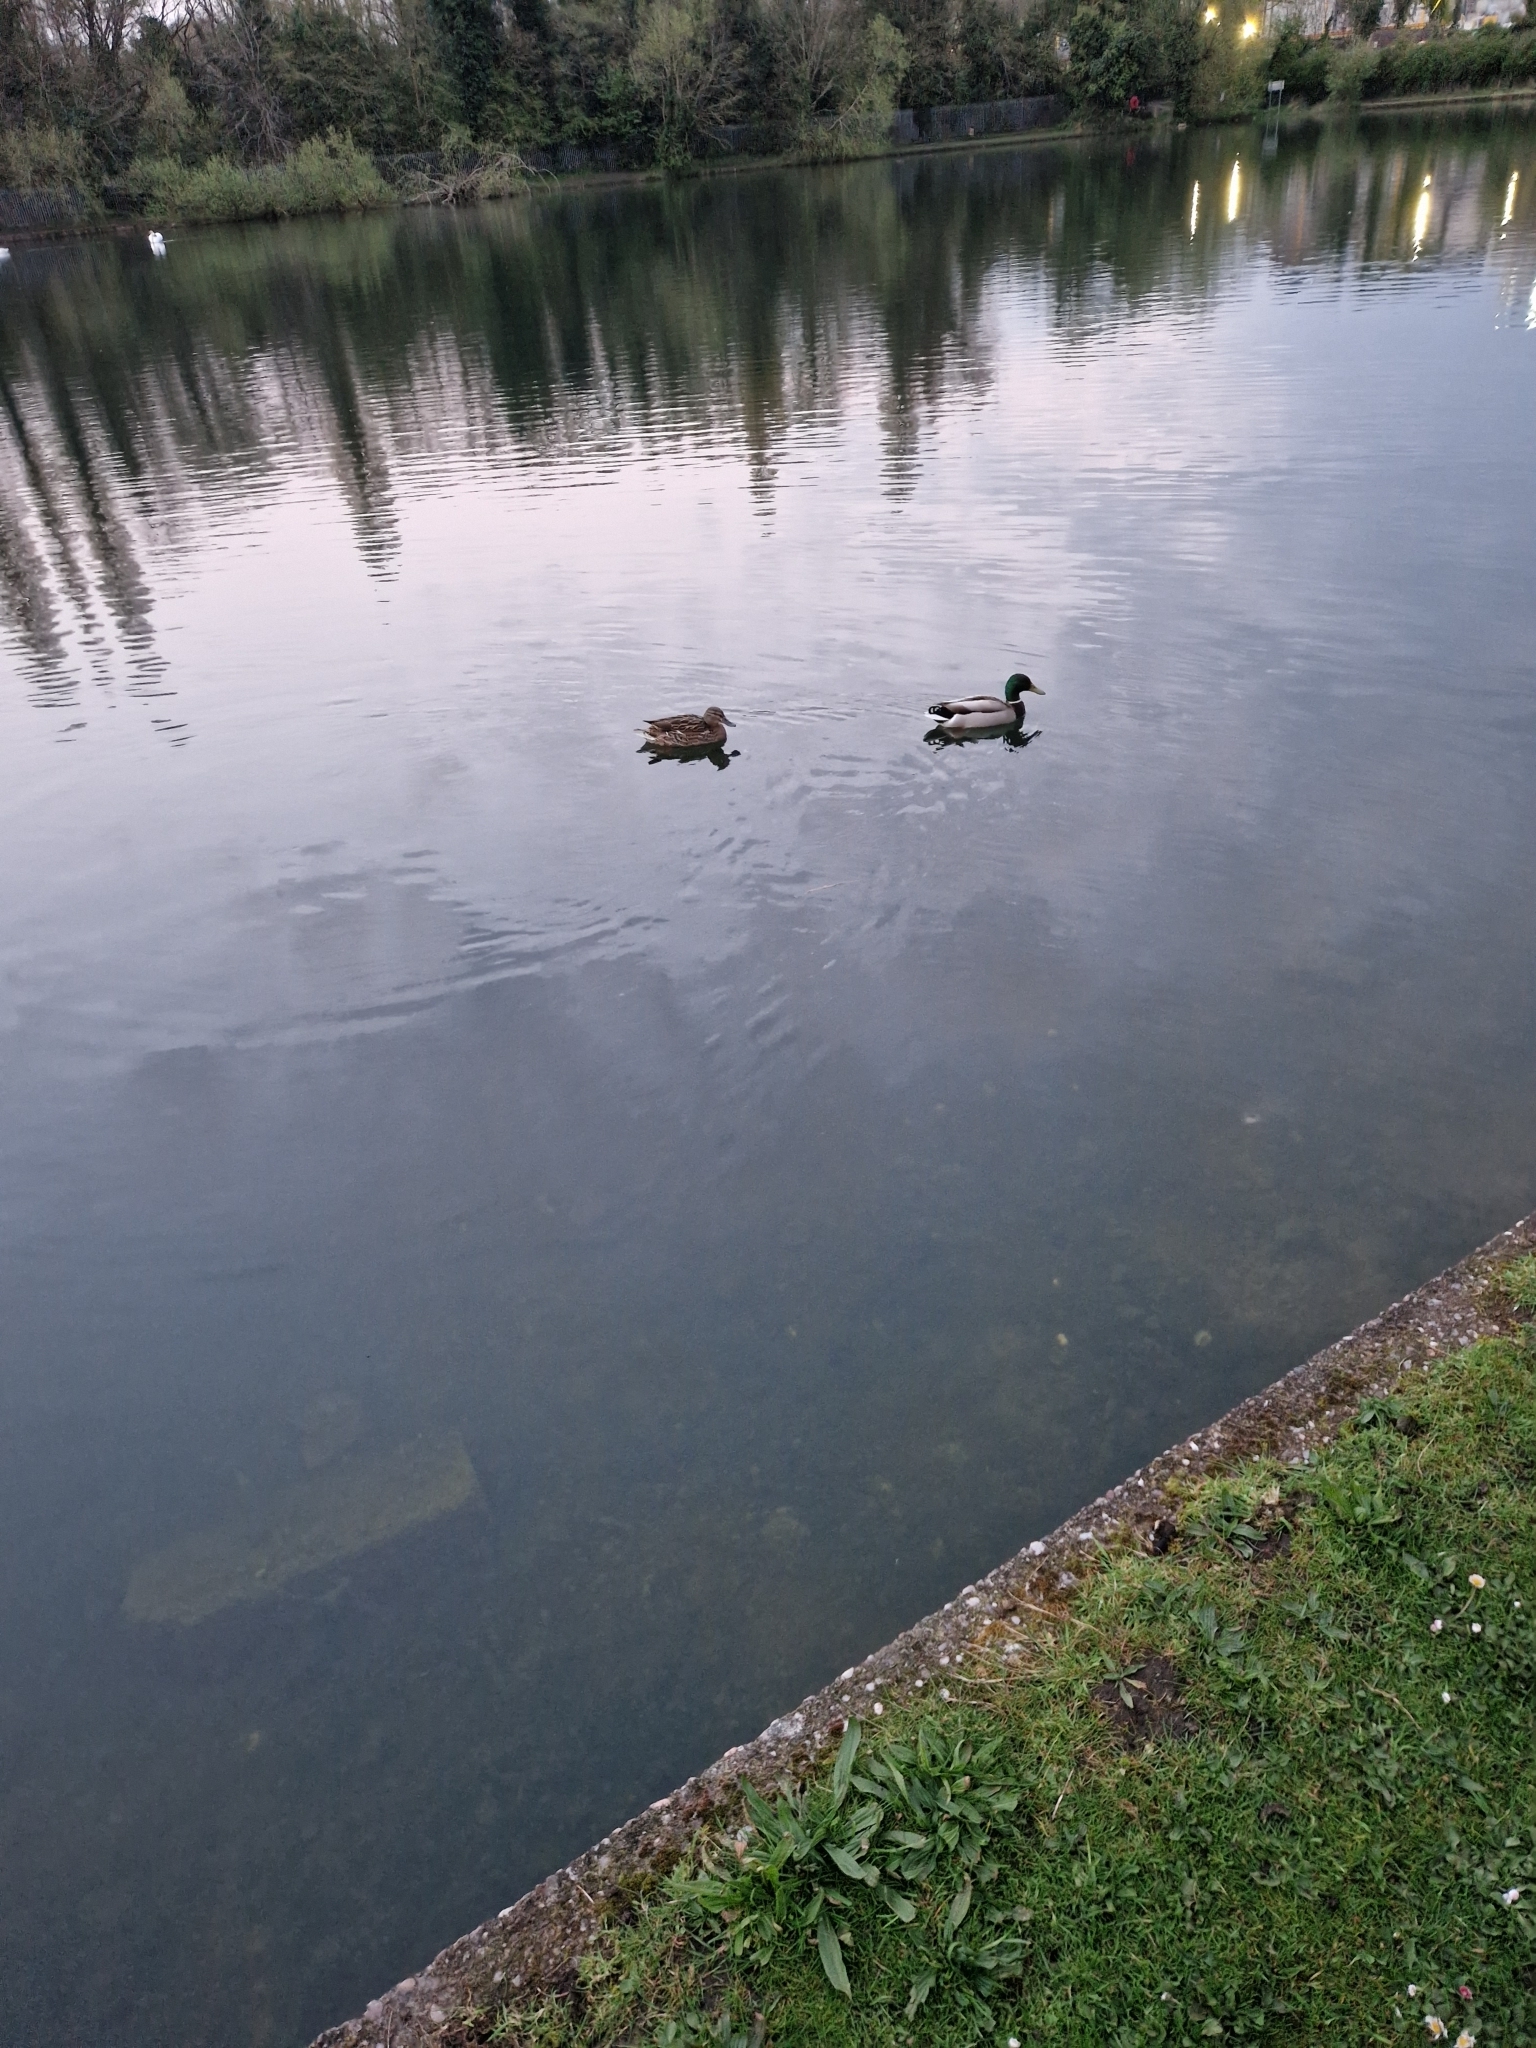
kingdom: Animalia
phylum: Chordata
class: Aves
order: Anseriformes
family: Anatidae
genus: Anas
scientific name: Anas platyrhynchos
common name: Mallard
